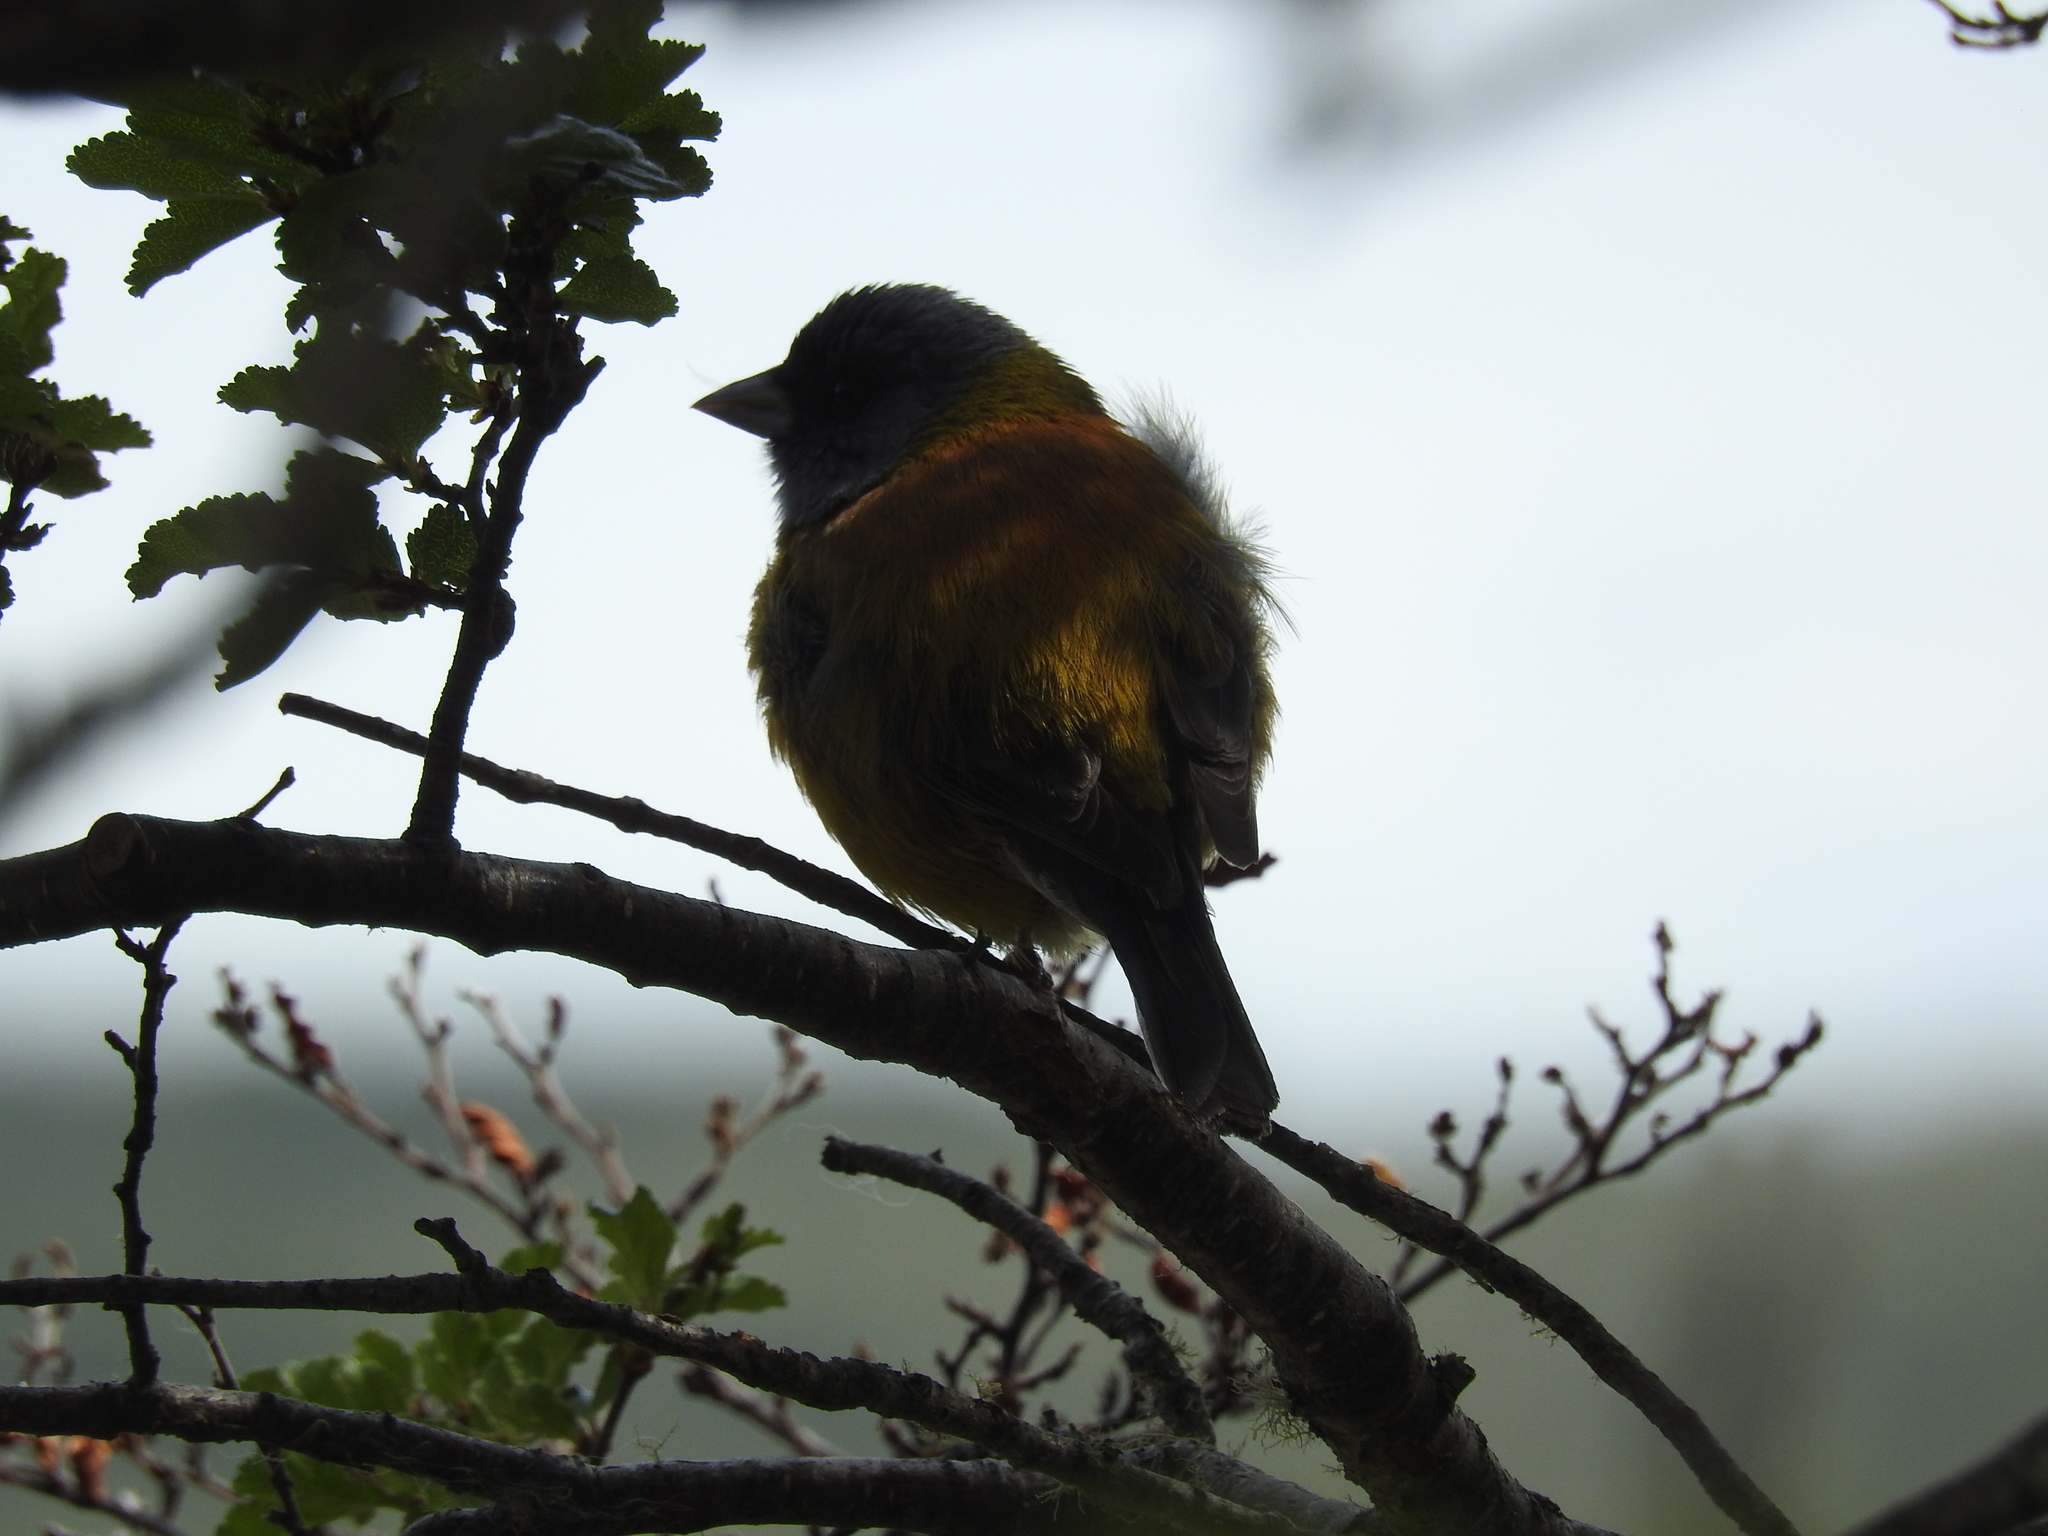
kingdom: Animalia
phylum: Chordata
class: Aves
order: Passeriformes
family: Thraupidae
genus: Phrygilus
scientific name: Phrygilus patagonicus
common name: Patagonian sierra finch
